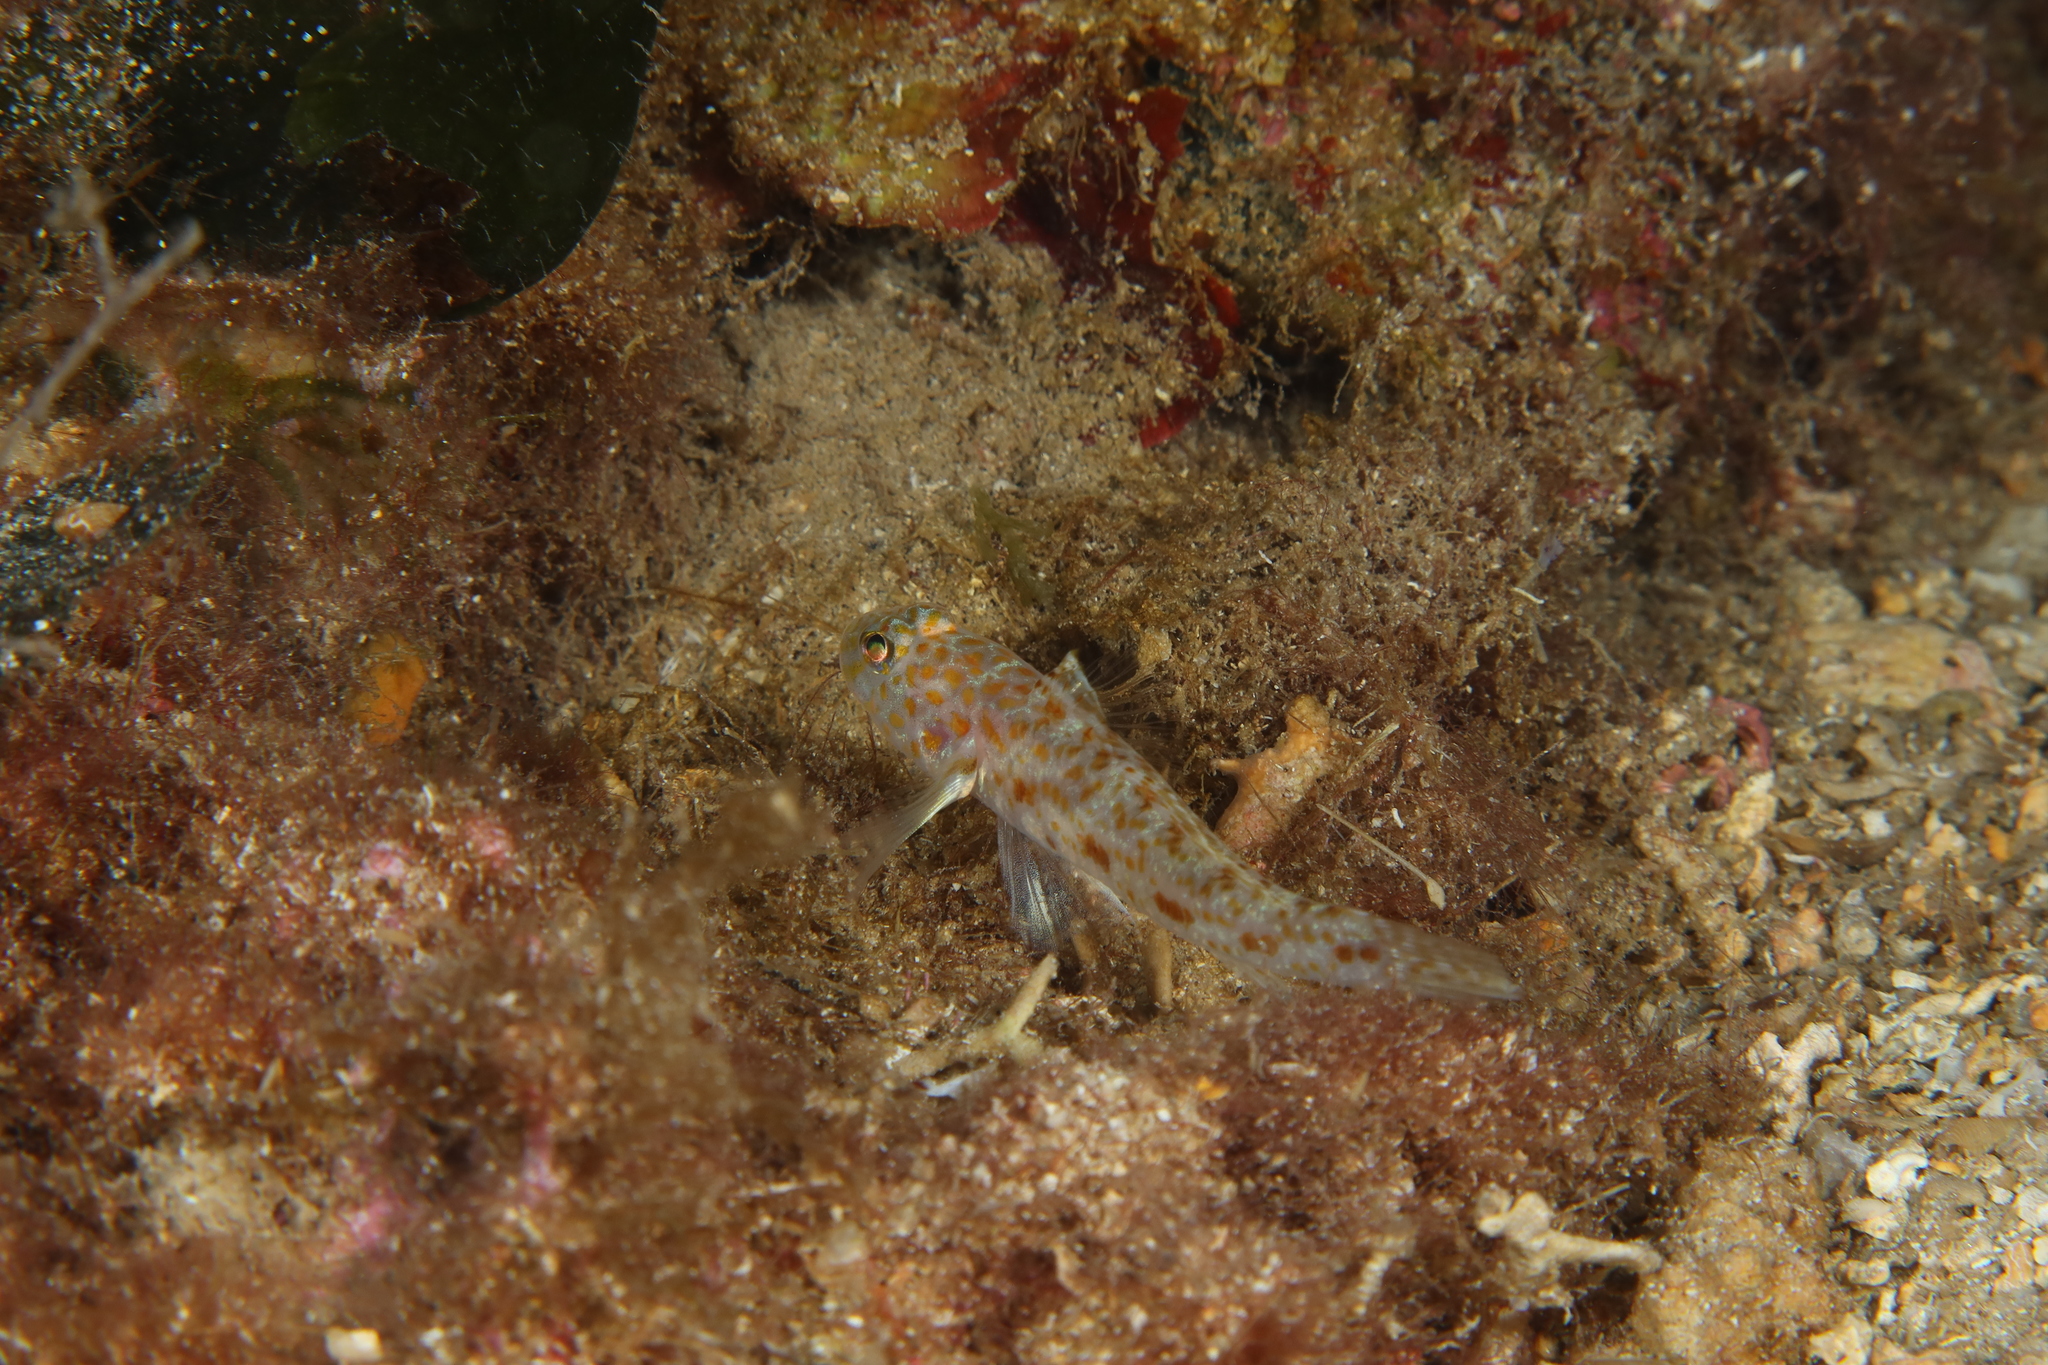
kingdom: Animalia
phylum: Chordata
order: Perciformes
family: Gobiidae
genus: Thorogobius
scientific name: Thorogobius macrolepis
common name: Large-scaled goby
